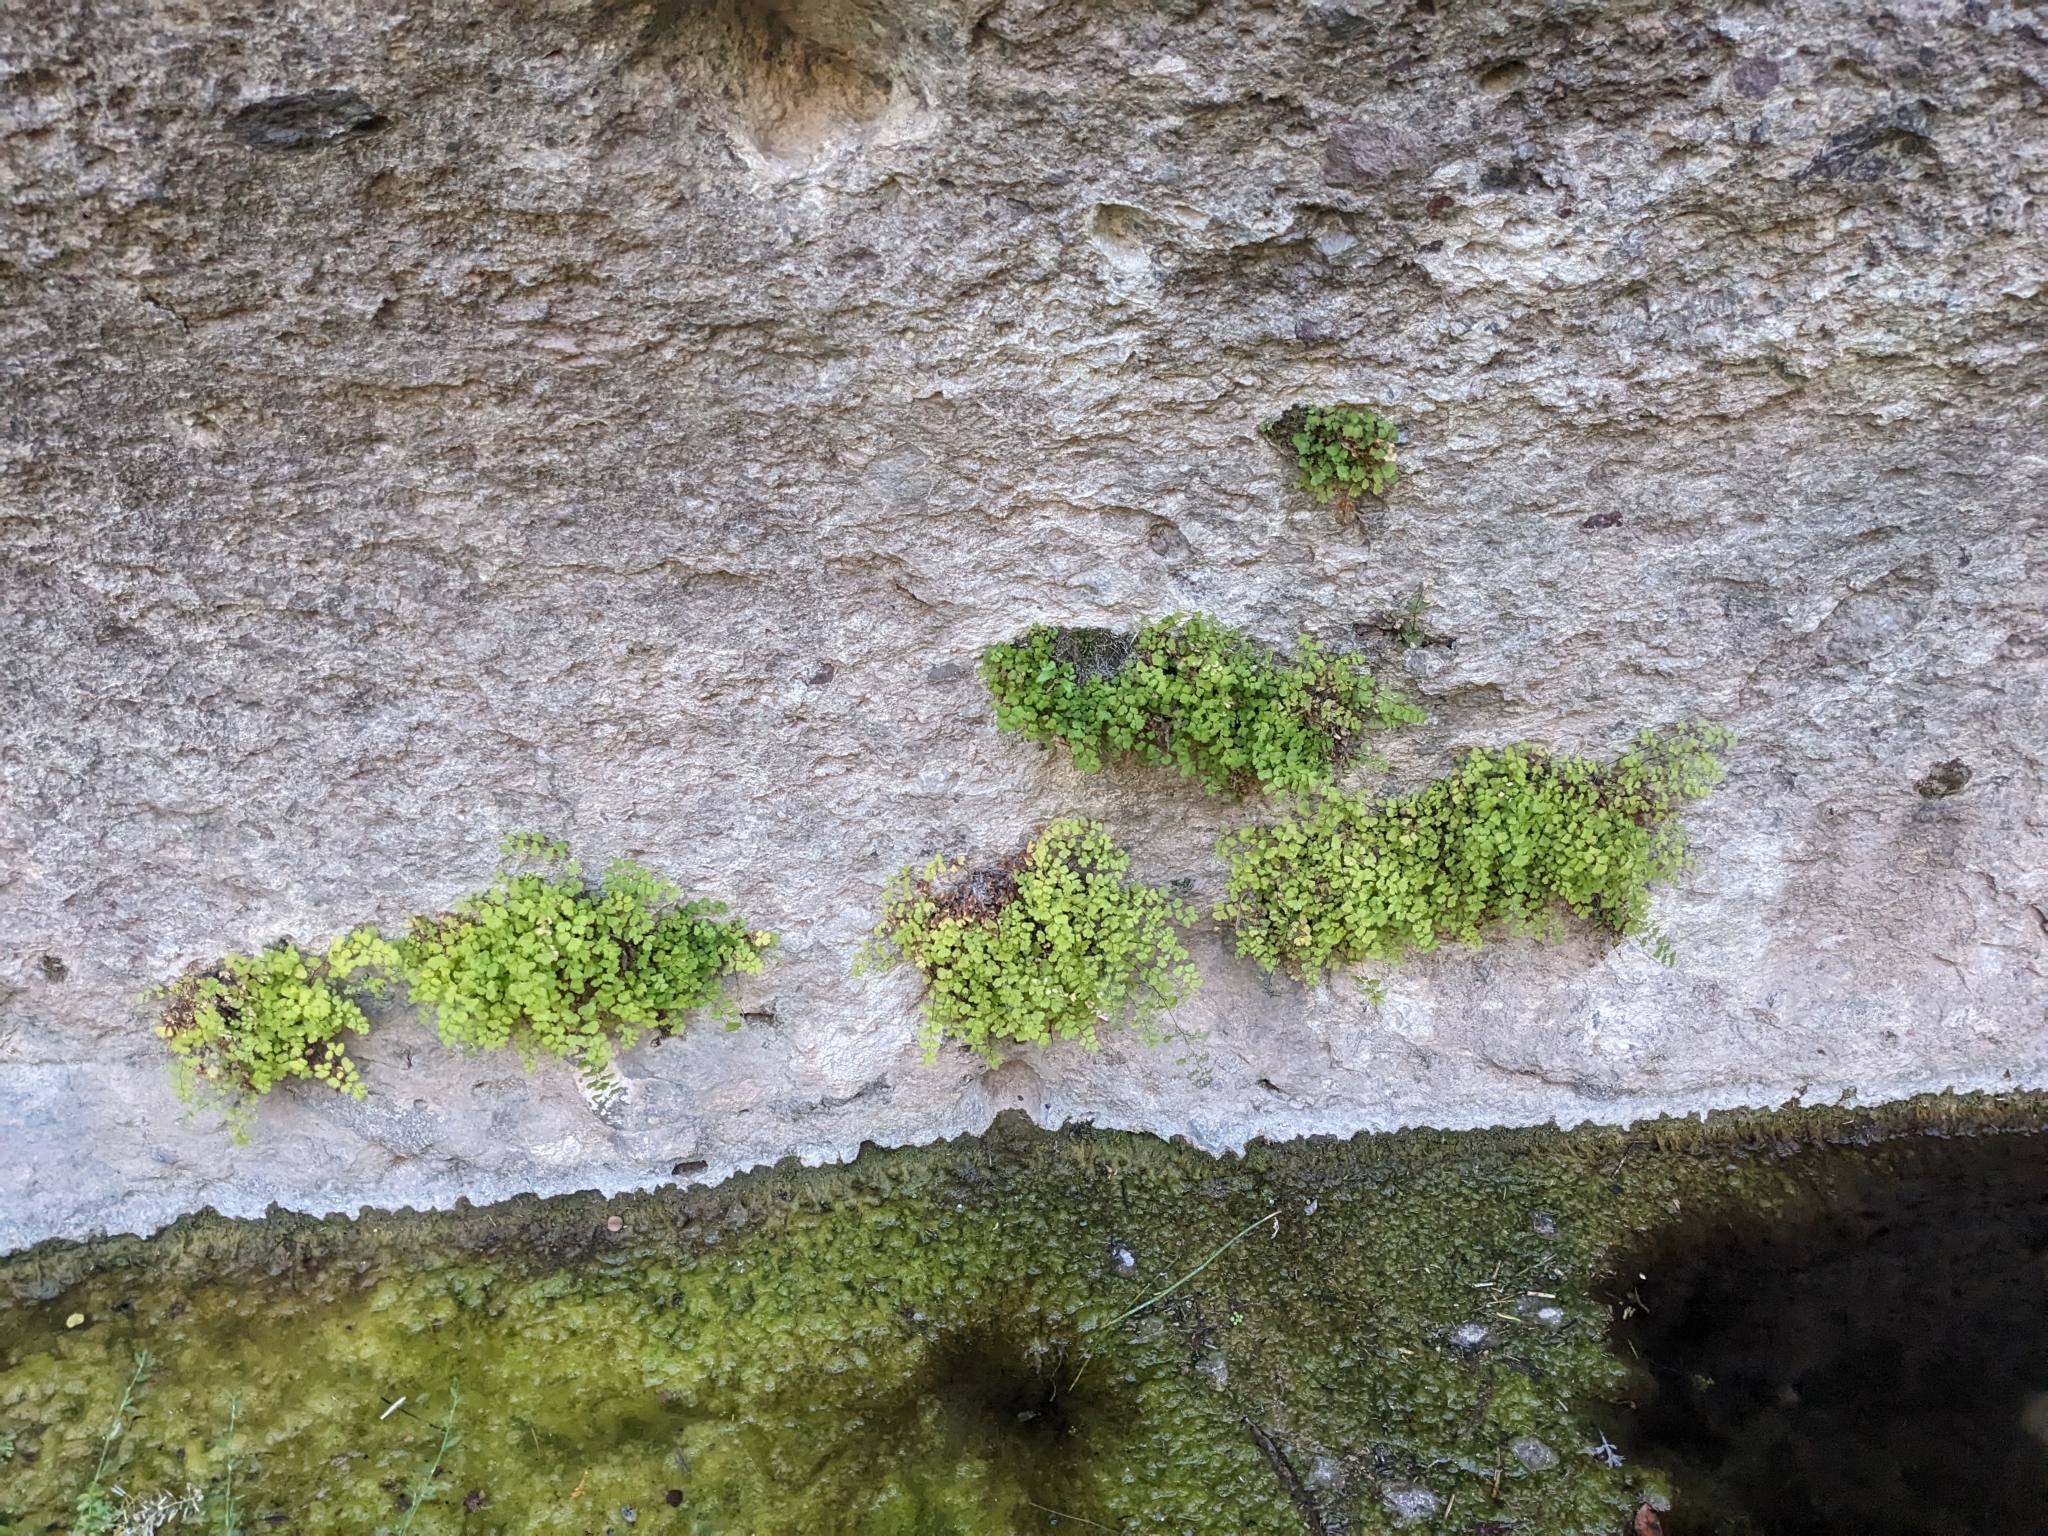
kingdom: Plantae
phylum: Tracheophyta
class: Polypodiopsida
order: Polypodiales
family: Pteridaceae
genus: Adiantum
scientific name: Adiantum capillus-veneris
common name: Maidenhair fern
